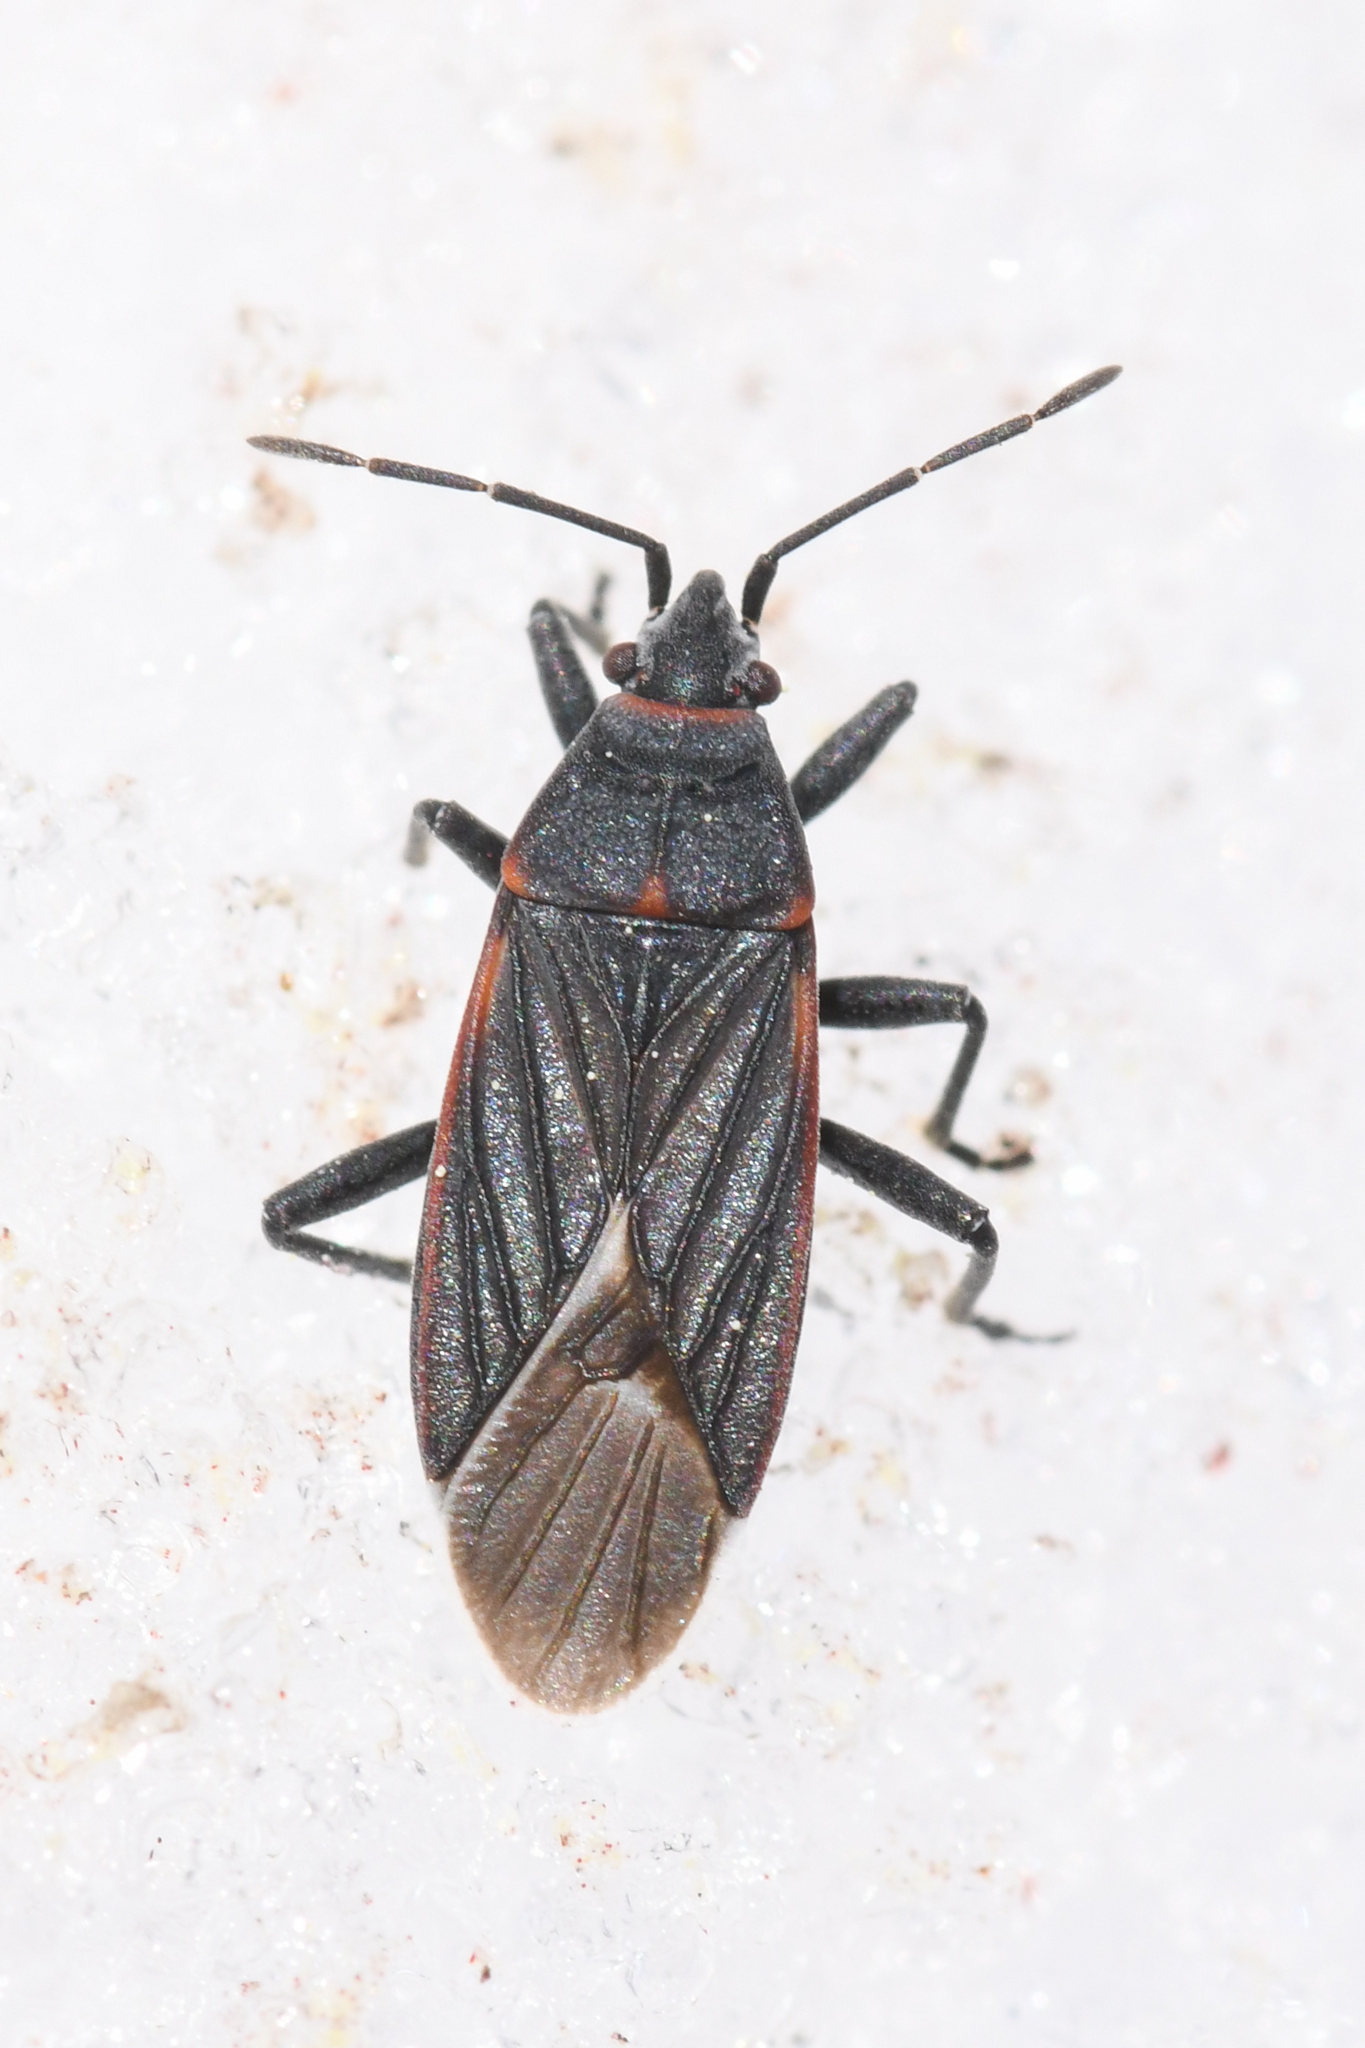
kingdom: Animalia
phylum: Arthropoda
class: Insecta
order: Hemiptera
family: Lygaeidae
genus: Melacoryphus
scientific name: Melacoryphus lateralis
